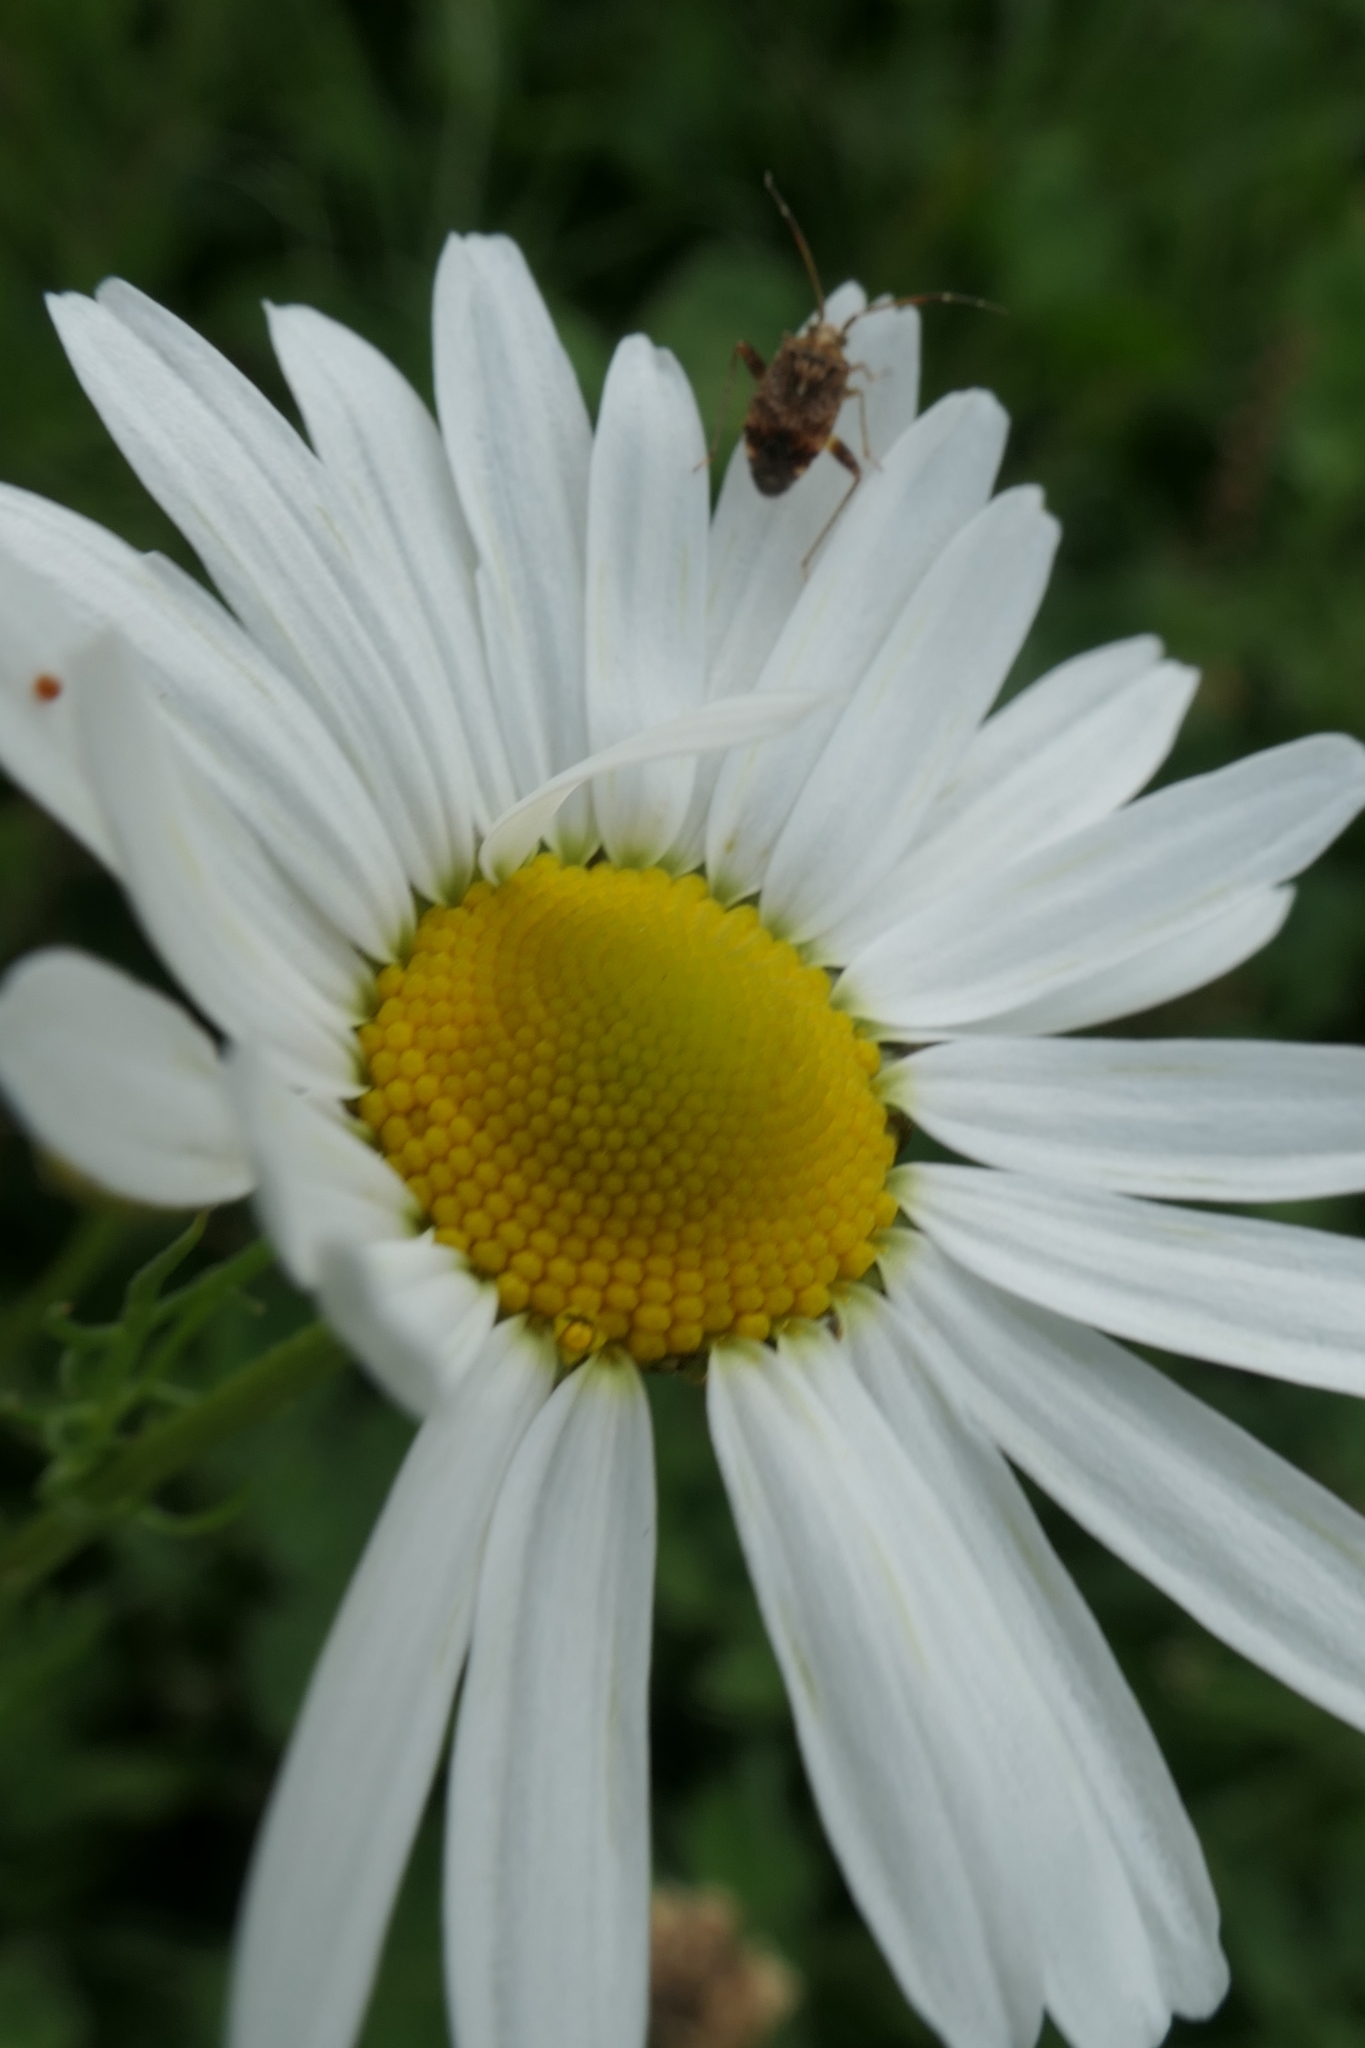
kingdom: Animalia
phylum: Arthropoda
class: Insecta
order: Hemiptera
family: Miridae
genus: Sidnia
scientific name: Sidnia kinbergi
